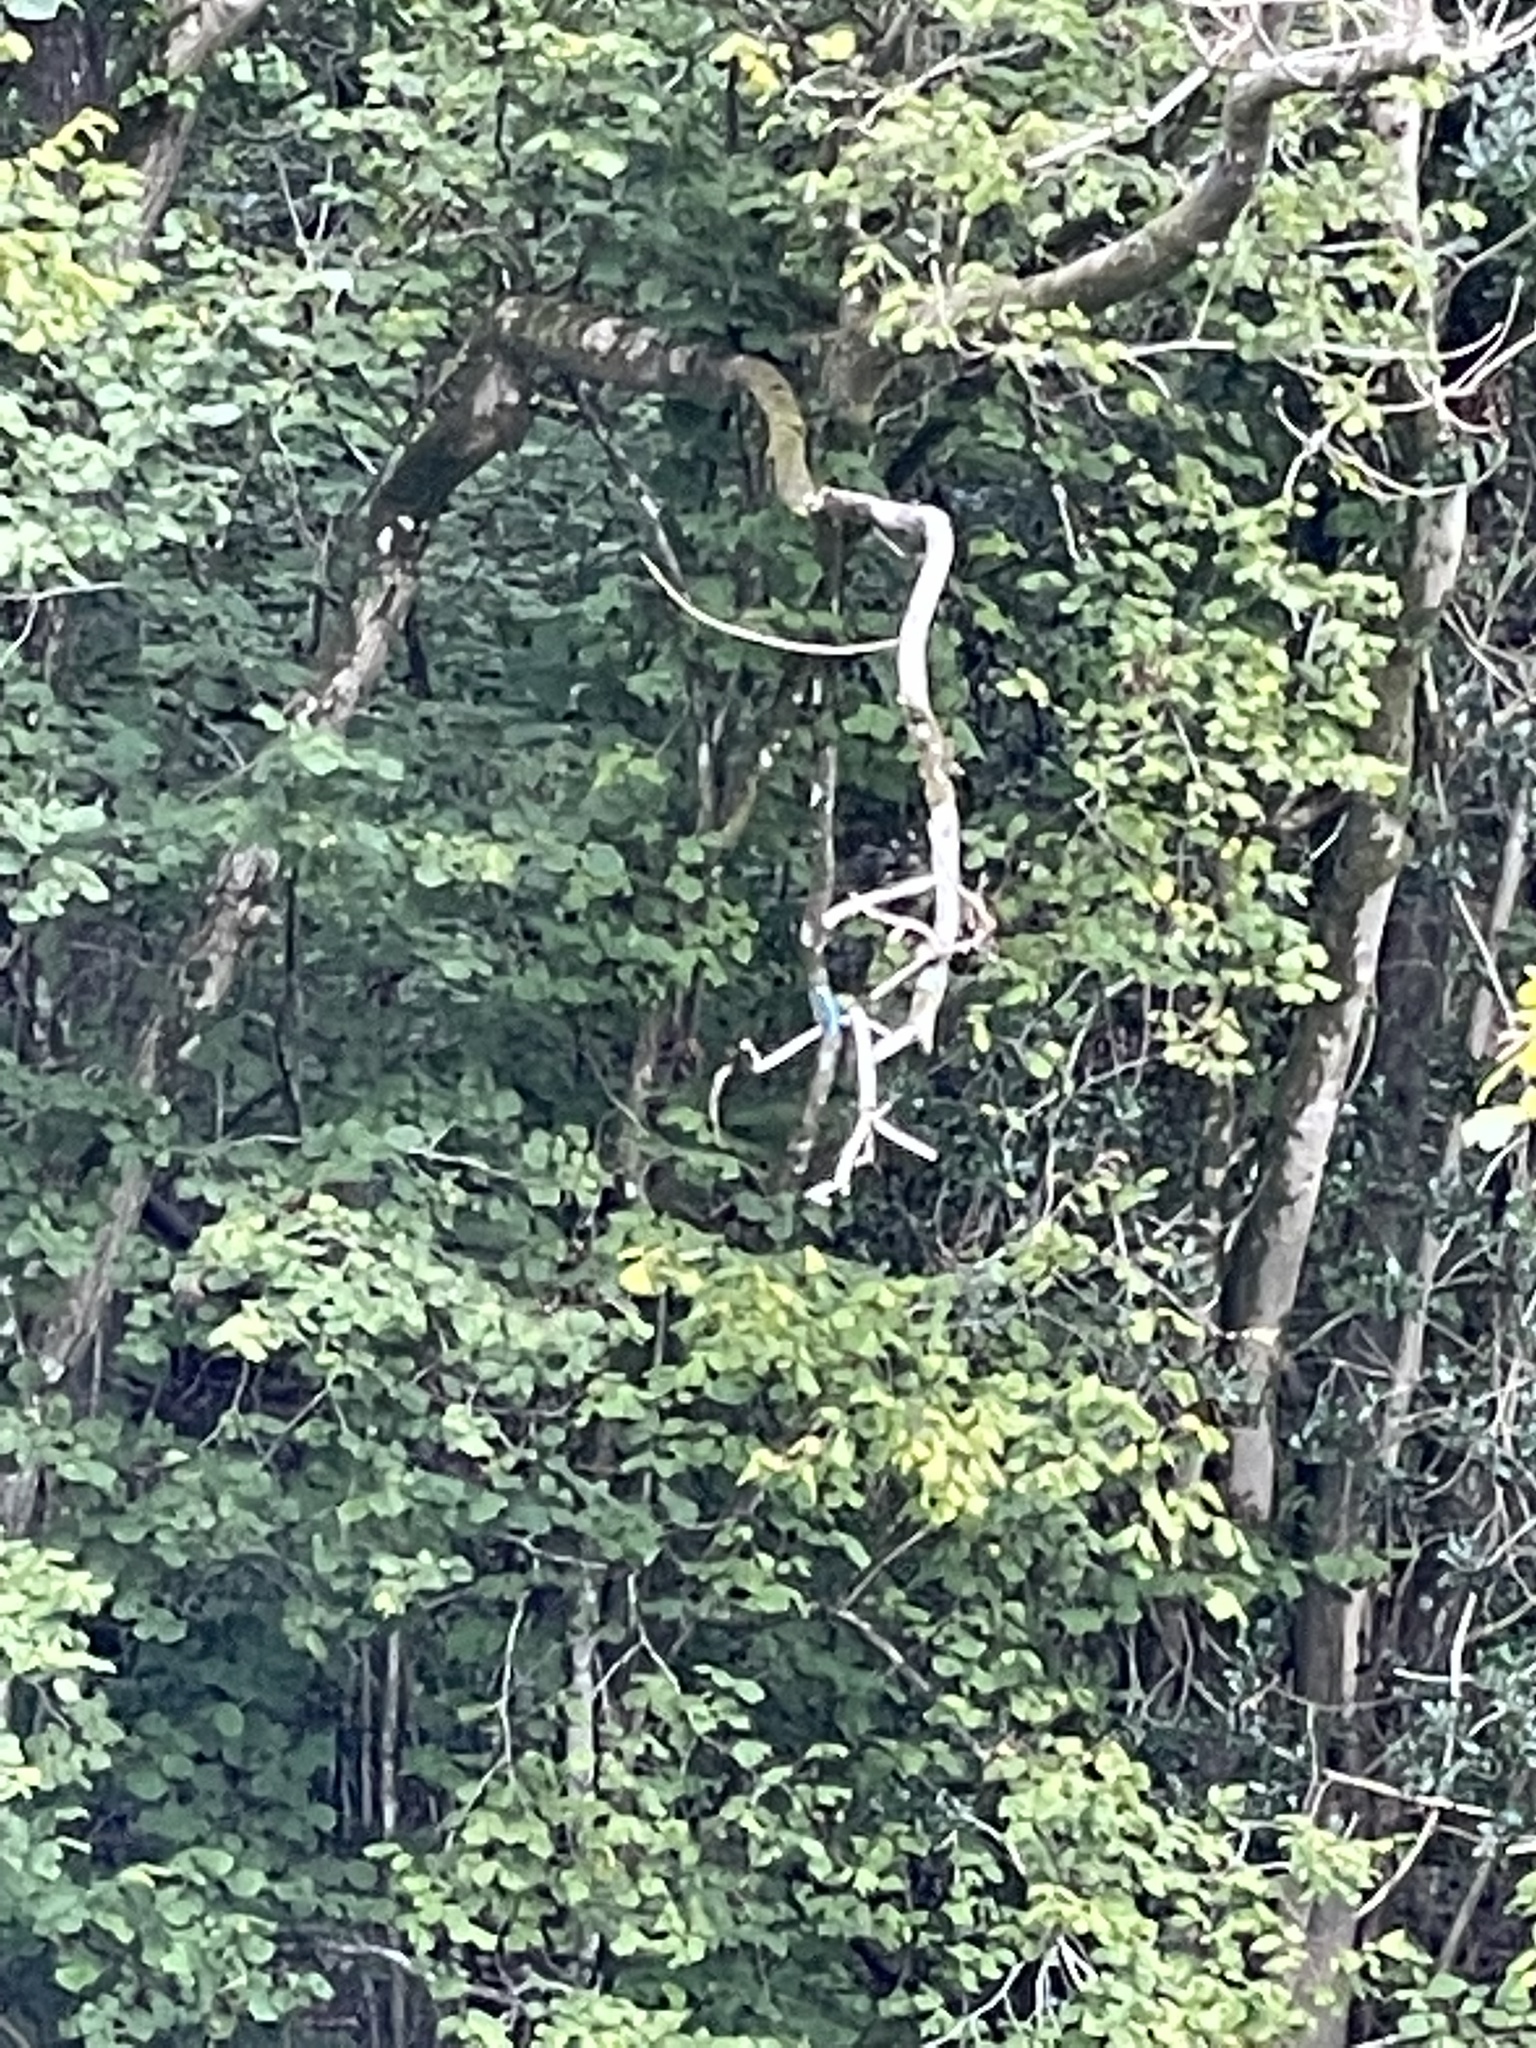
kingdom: Animalia
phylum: Chordata
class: Aves
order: Coraciiformes
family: Alcedinidae
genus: Alcedo
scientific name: Alcedo atthis
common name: Common kingfisher
